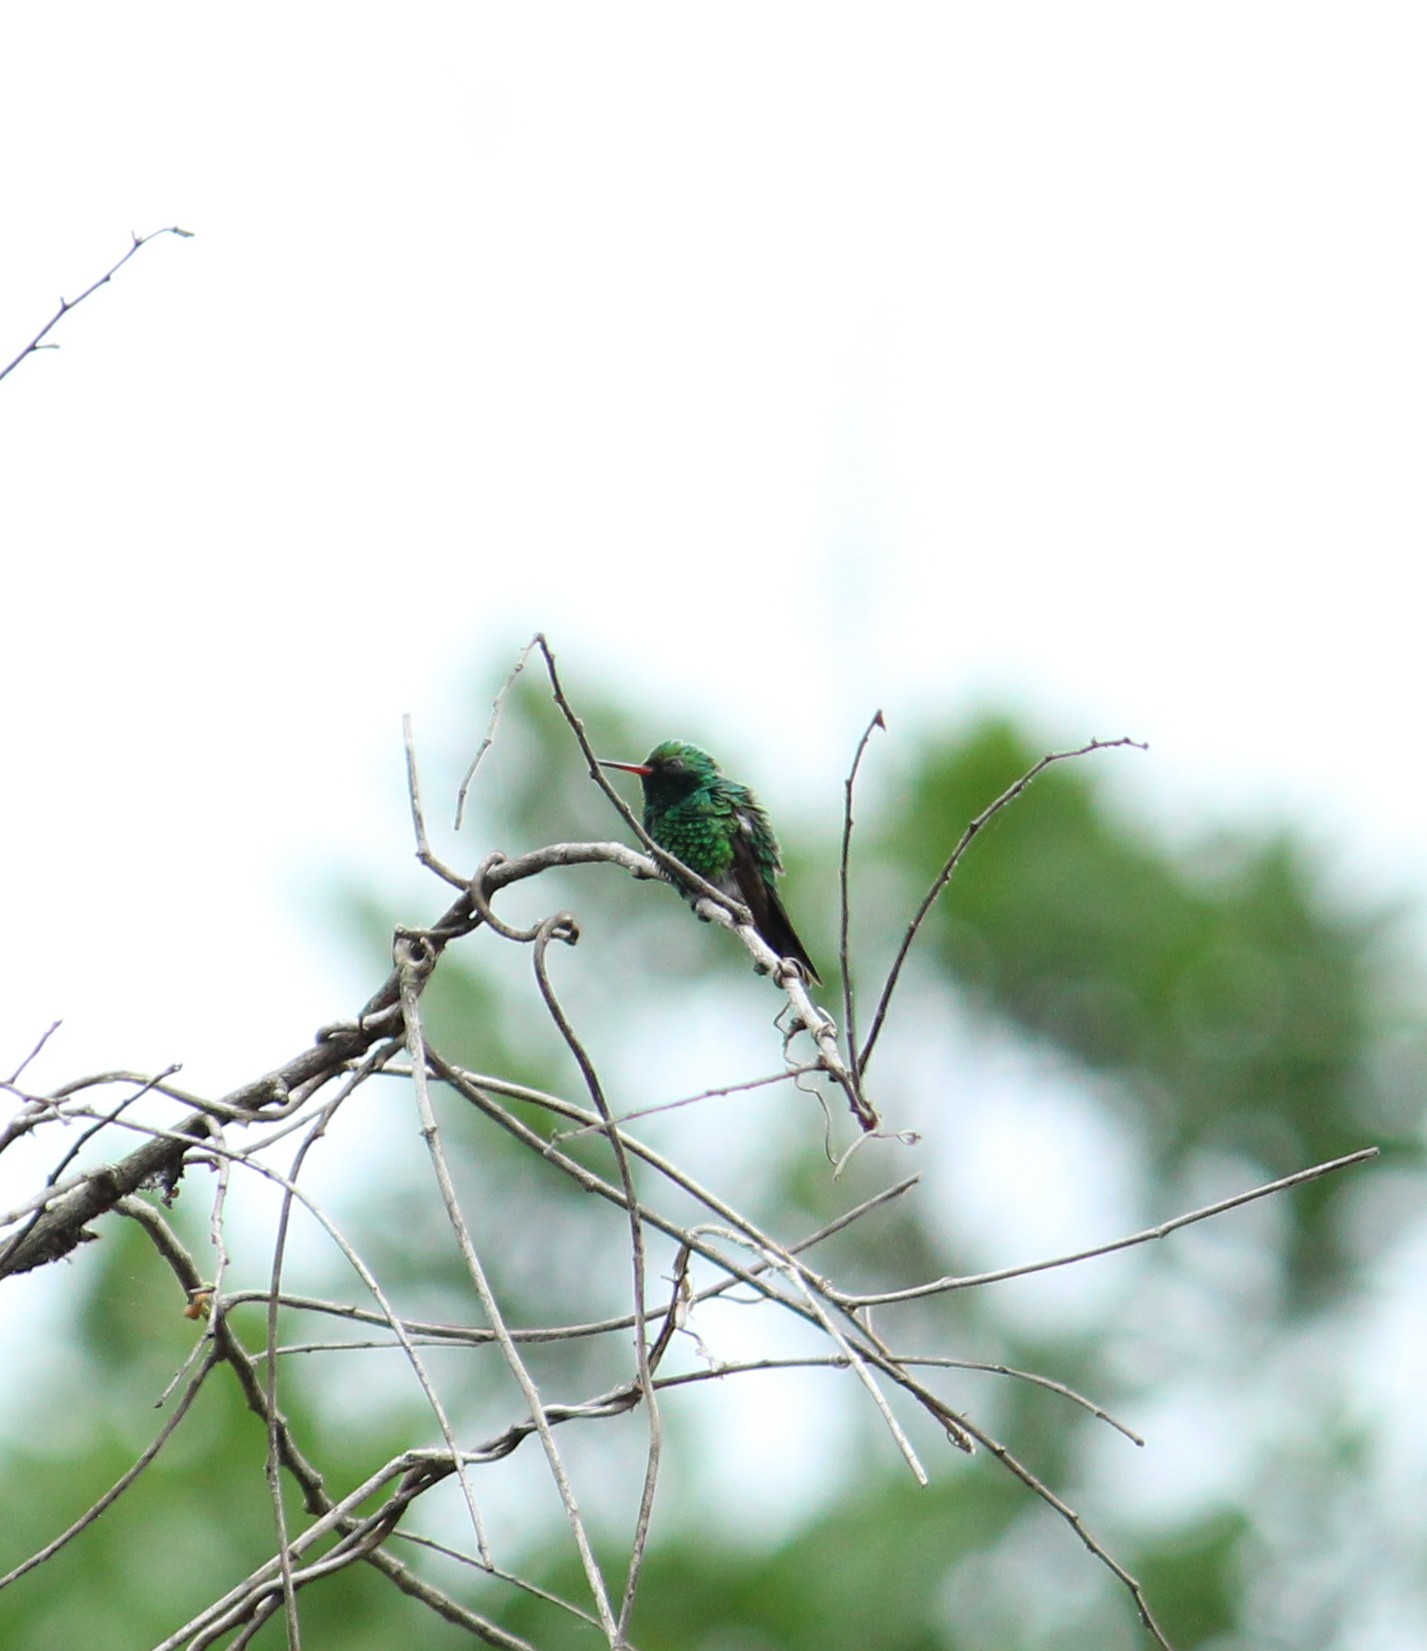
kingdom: Animalia
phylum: Chordata
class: Aves
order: Apodiformes
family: Trochilidae
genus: Cynanthus
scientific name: Cynanthus canivetii
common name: Canivet's emerald
